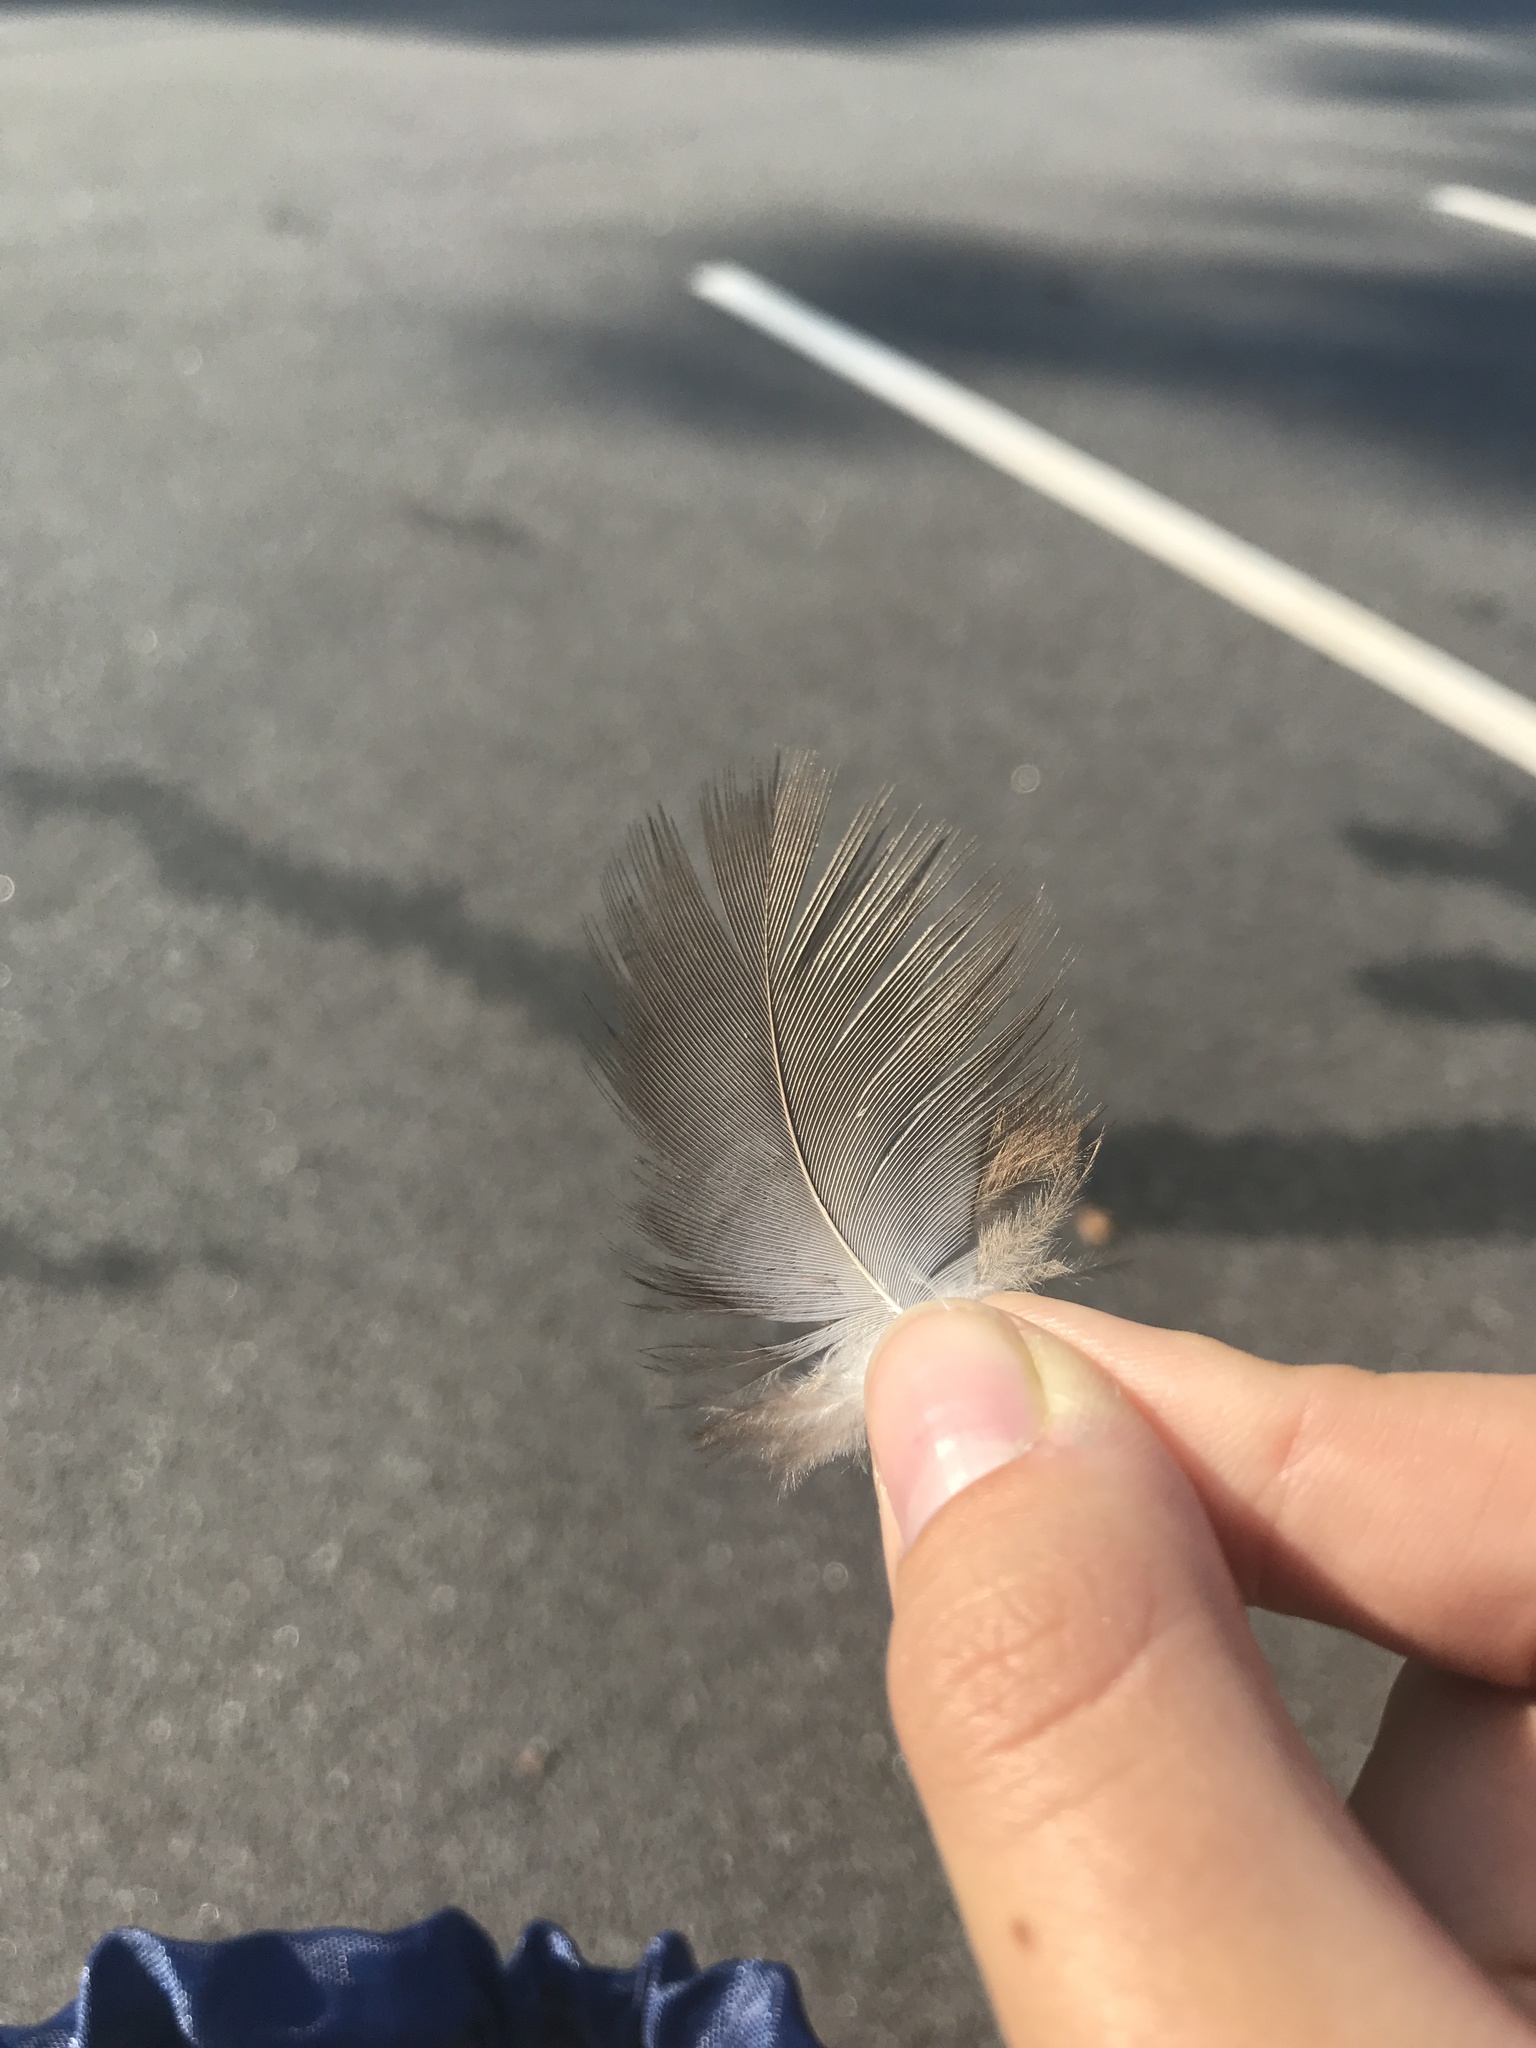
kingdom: Animalia
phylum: Chordata
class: Aves
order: Accipitriformes
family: Cathartidae
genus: Cathartes
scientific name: Cathartes aura
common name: Turkey vulture
